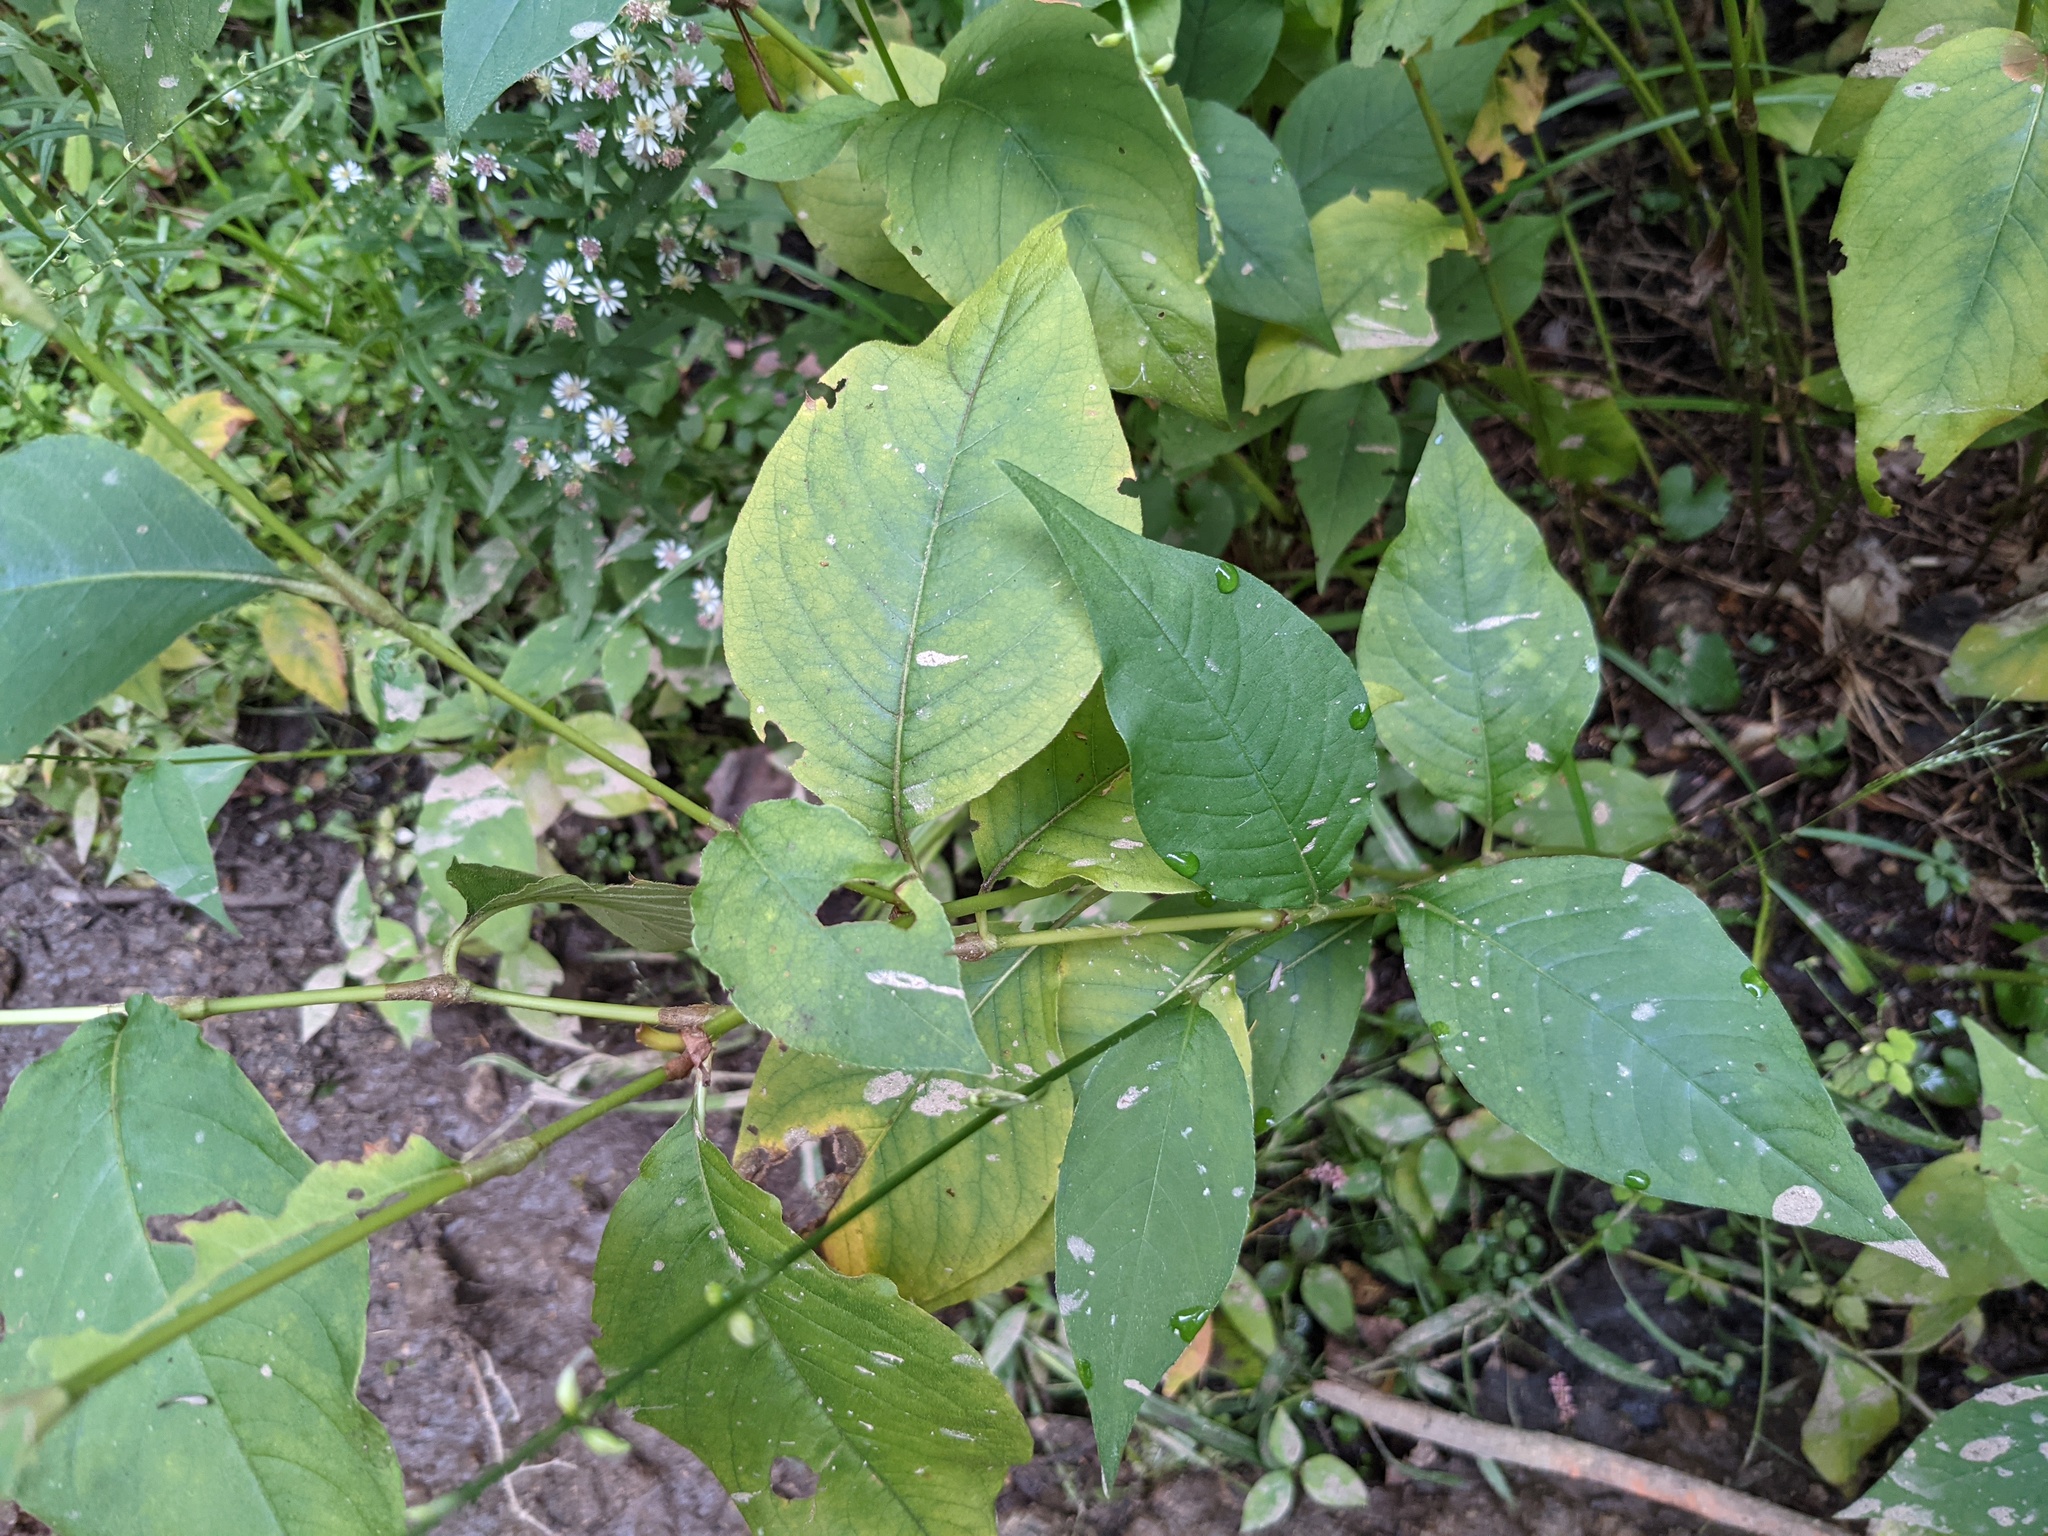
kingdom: Plantae
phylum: Tracheophyta
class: Magnoliopsida
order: Caryophyllales
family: Polygonaceae
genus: Persicaria
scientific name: Persicaria virginiana
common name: Jumpseed
